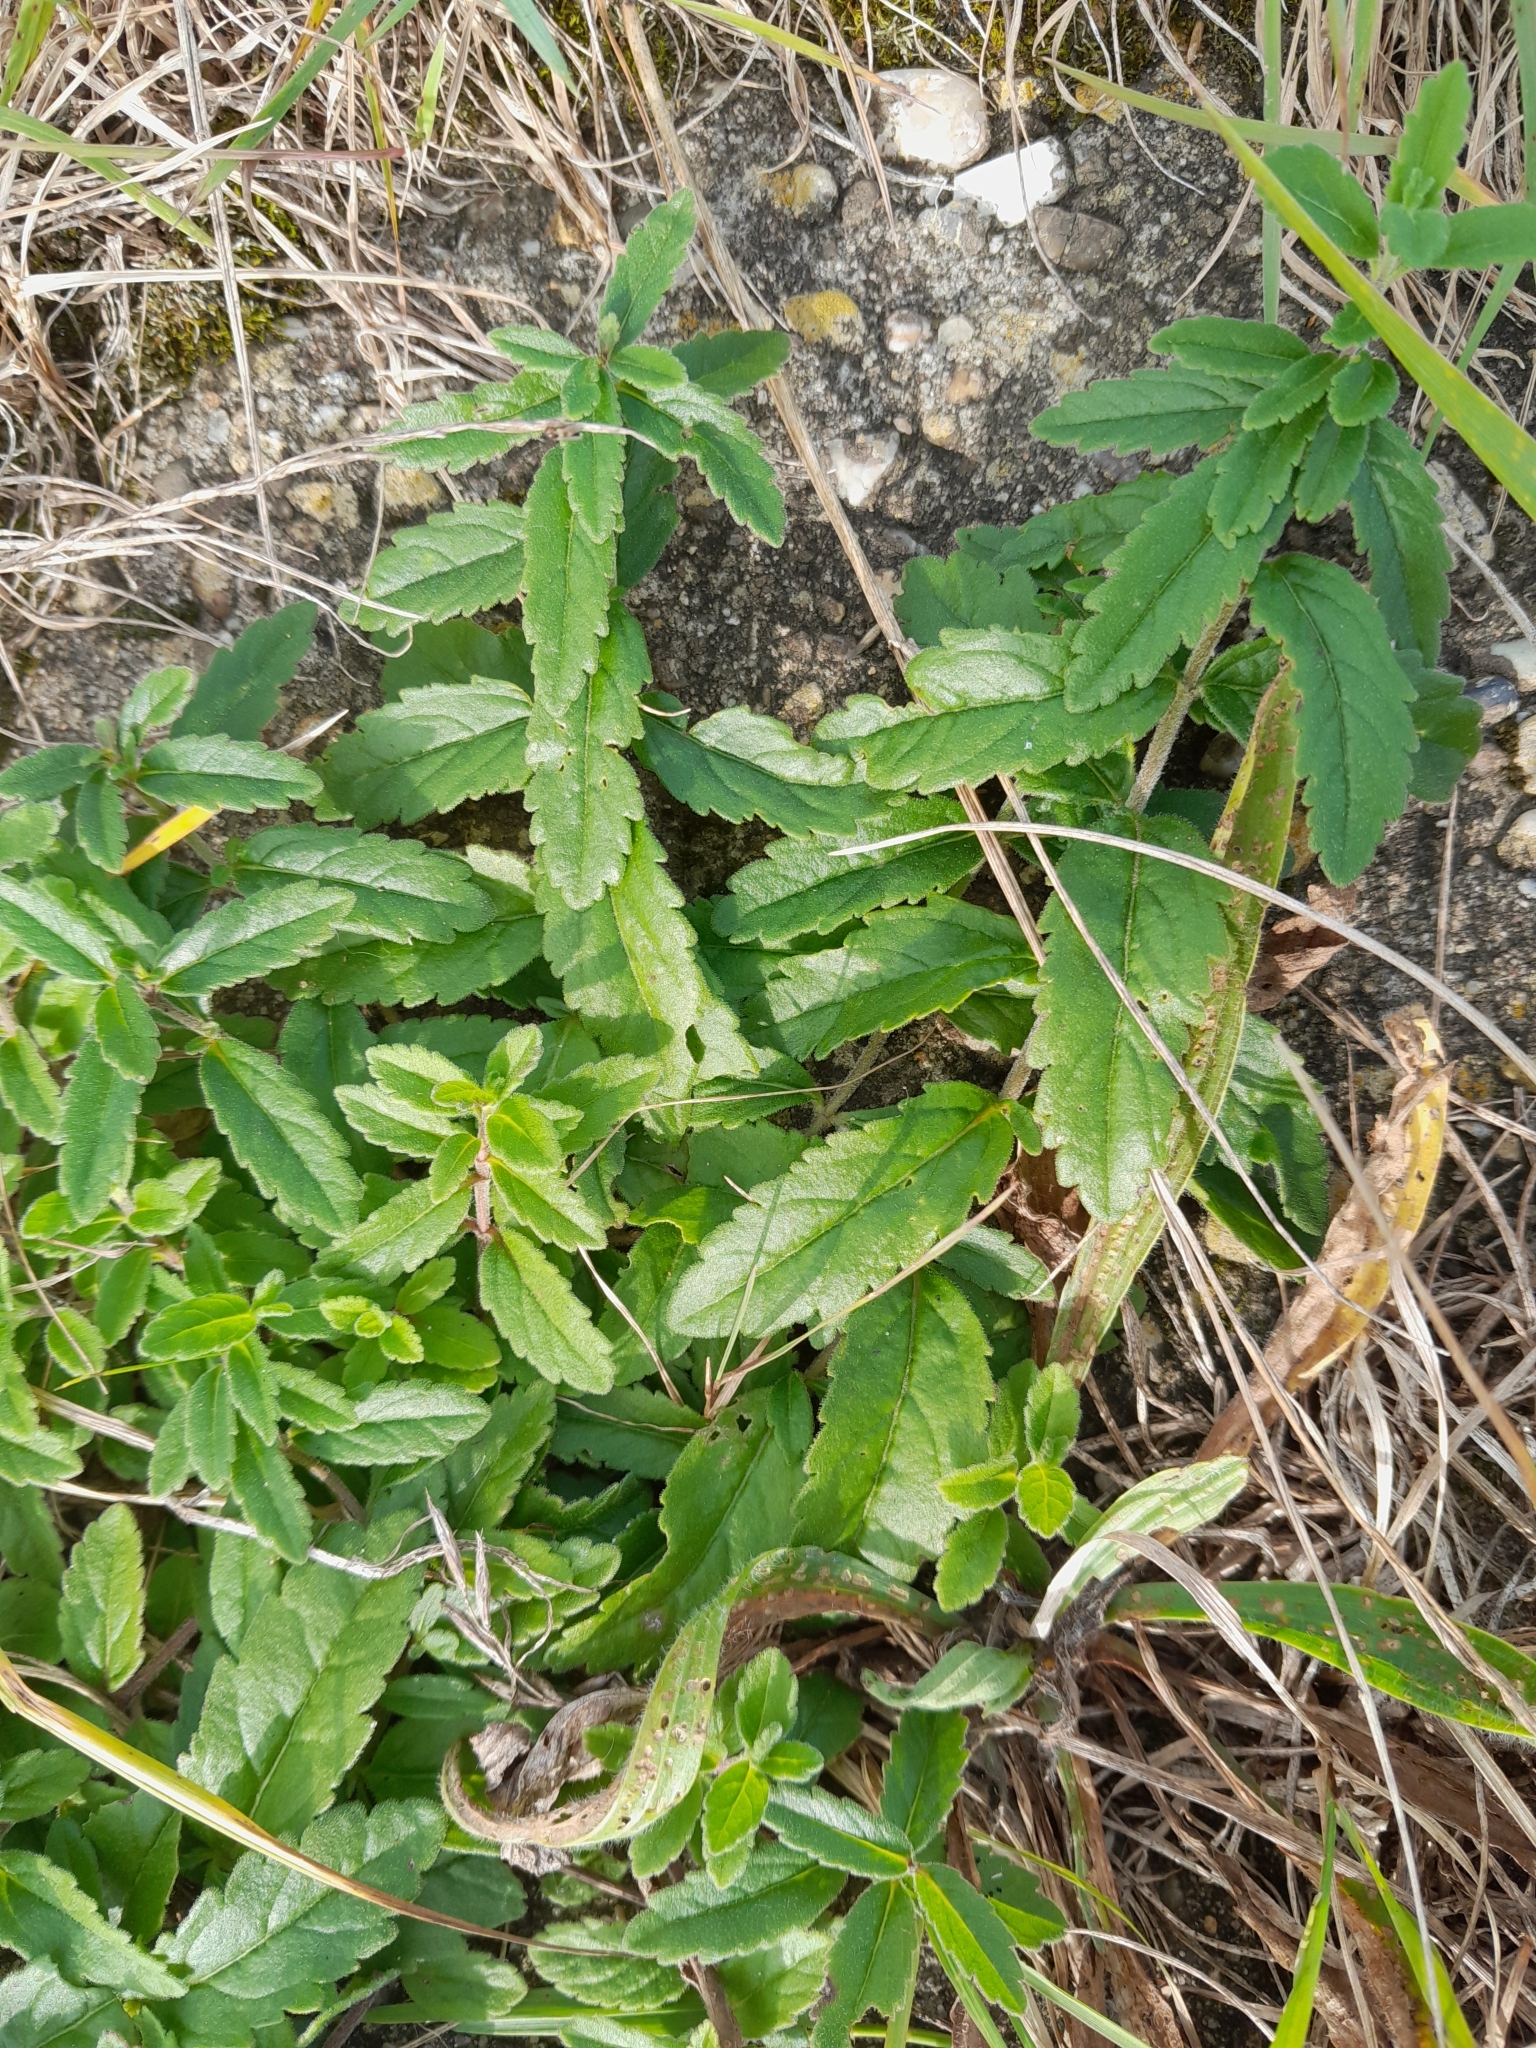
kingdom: Plantae
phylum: Tracheophyta
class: Magnoliopsida
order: Lamiales
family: Plantaginaceae
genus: Veronica
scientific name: Veronica teucrium
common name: Large speedwell
